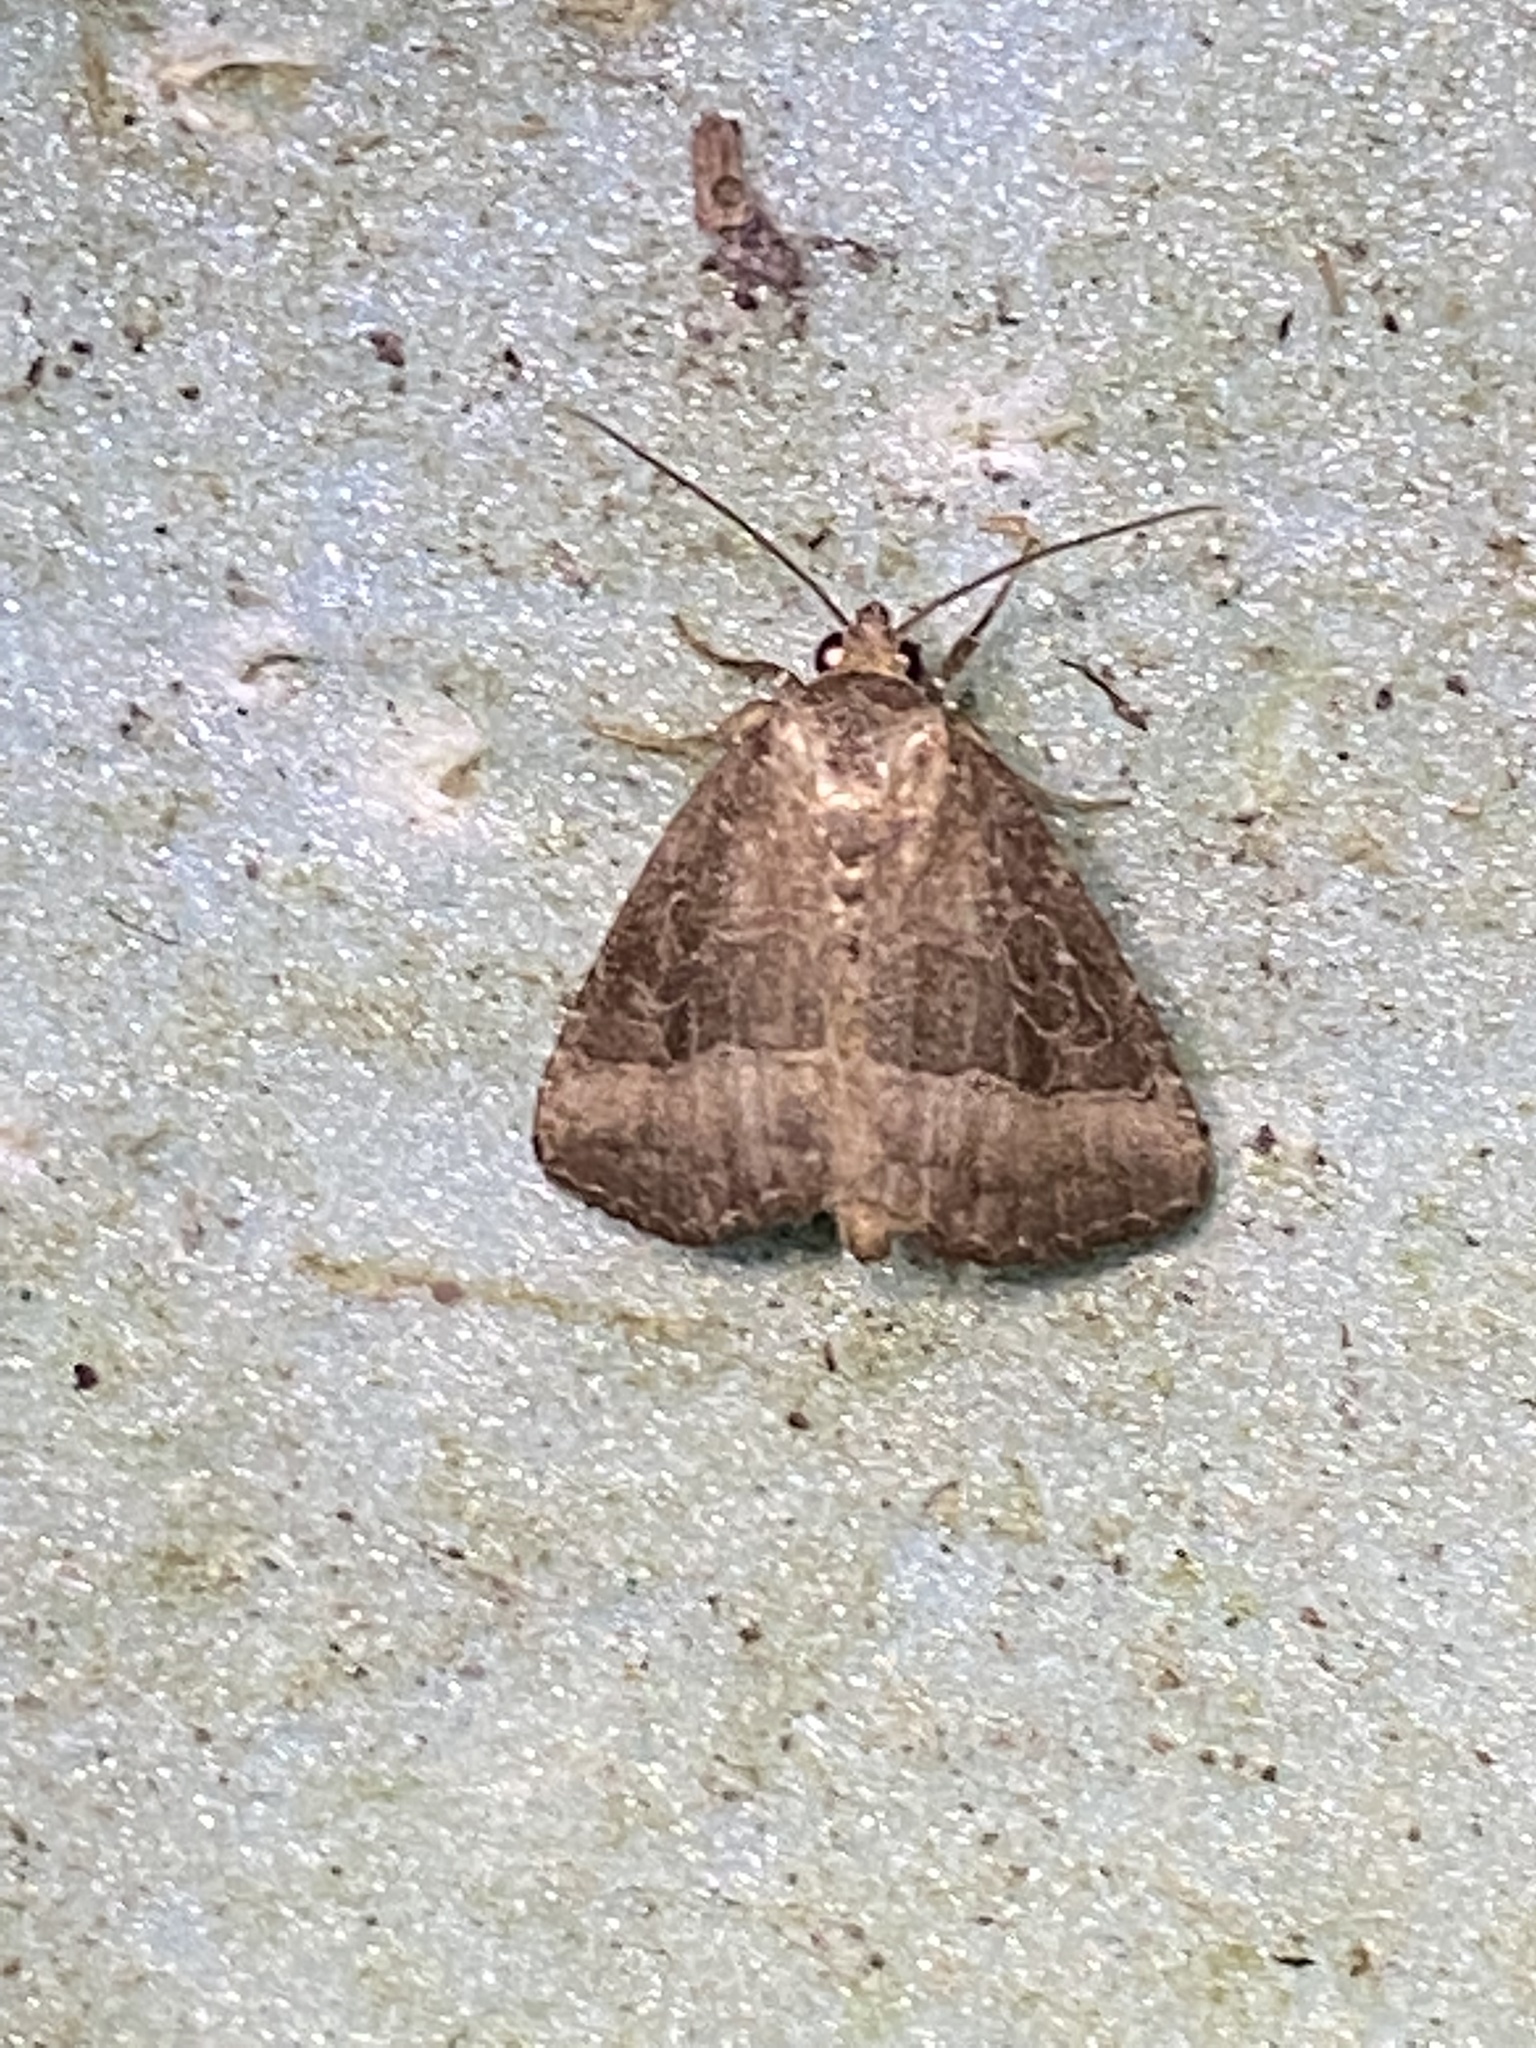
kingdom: Animalia
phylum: Arthropoda
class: Insecta
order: Lepidoptera
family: Noctuidae
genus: Ogdoconta
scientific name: Ogdoconta cinereola
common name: Common pinkband
